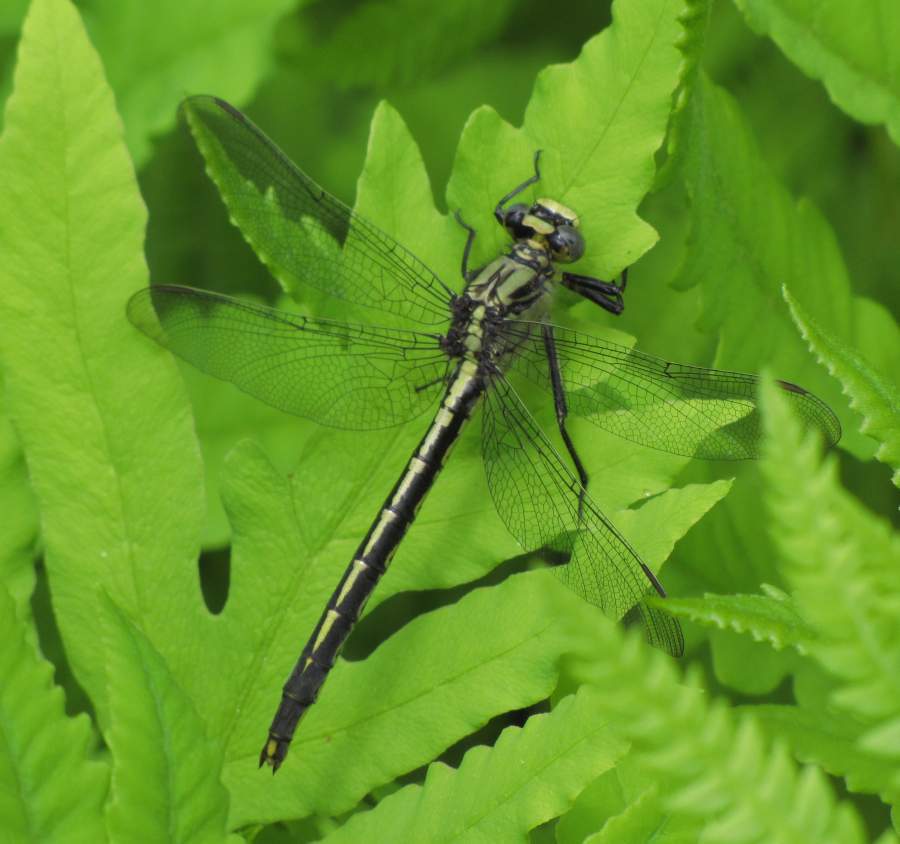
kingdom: Animalia
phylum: Arthropoda
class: Insecta
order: Odonata
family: Gomphidae
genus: Arigomphus
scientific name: Arigomphus cornutus
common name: Horned clubtail
